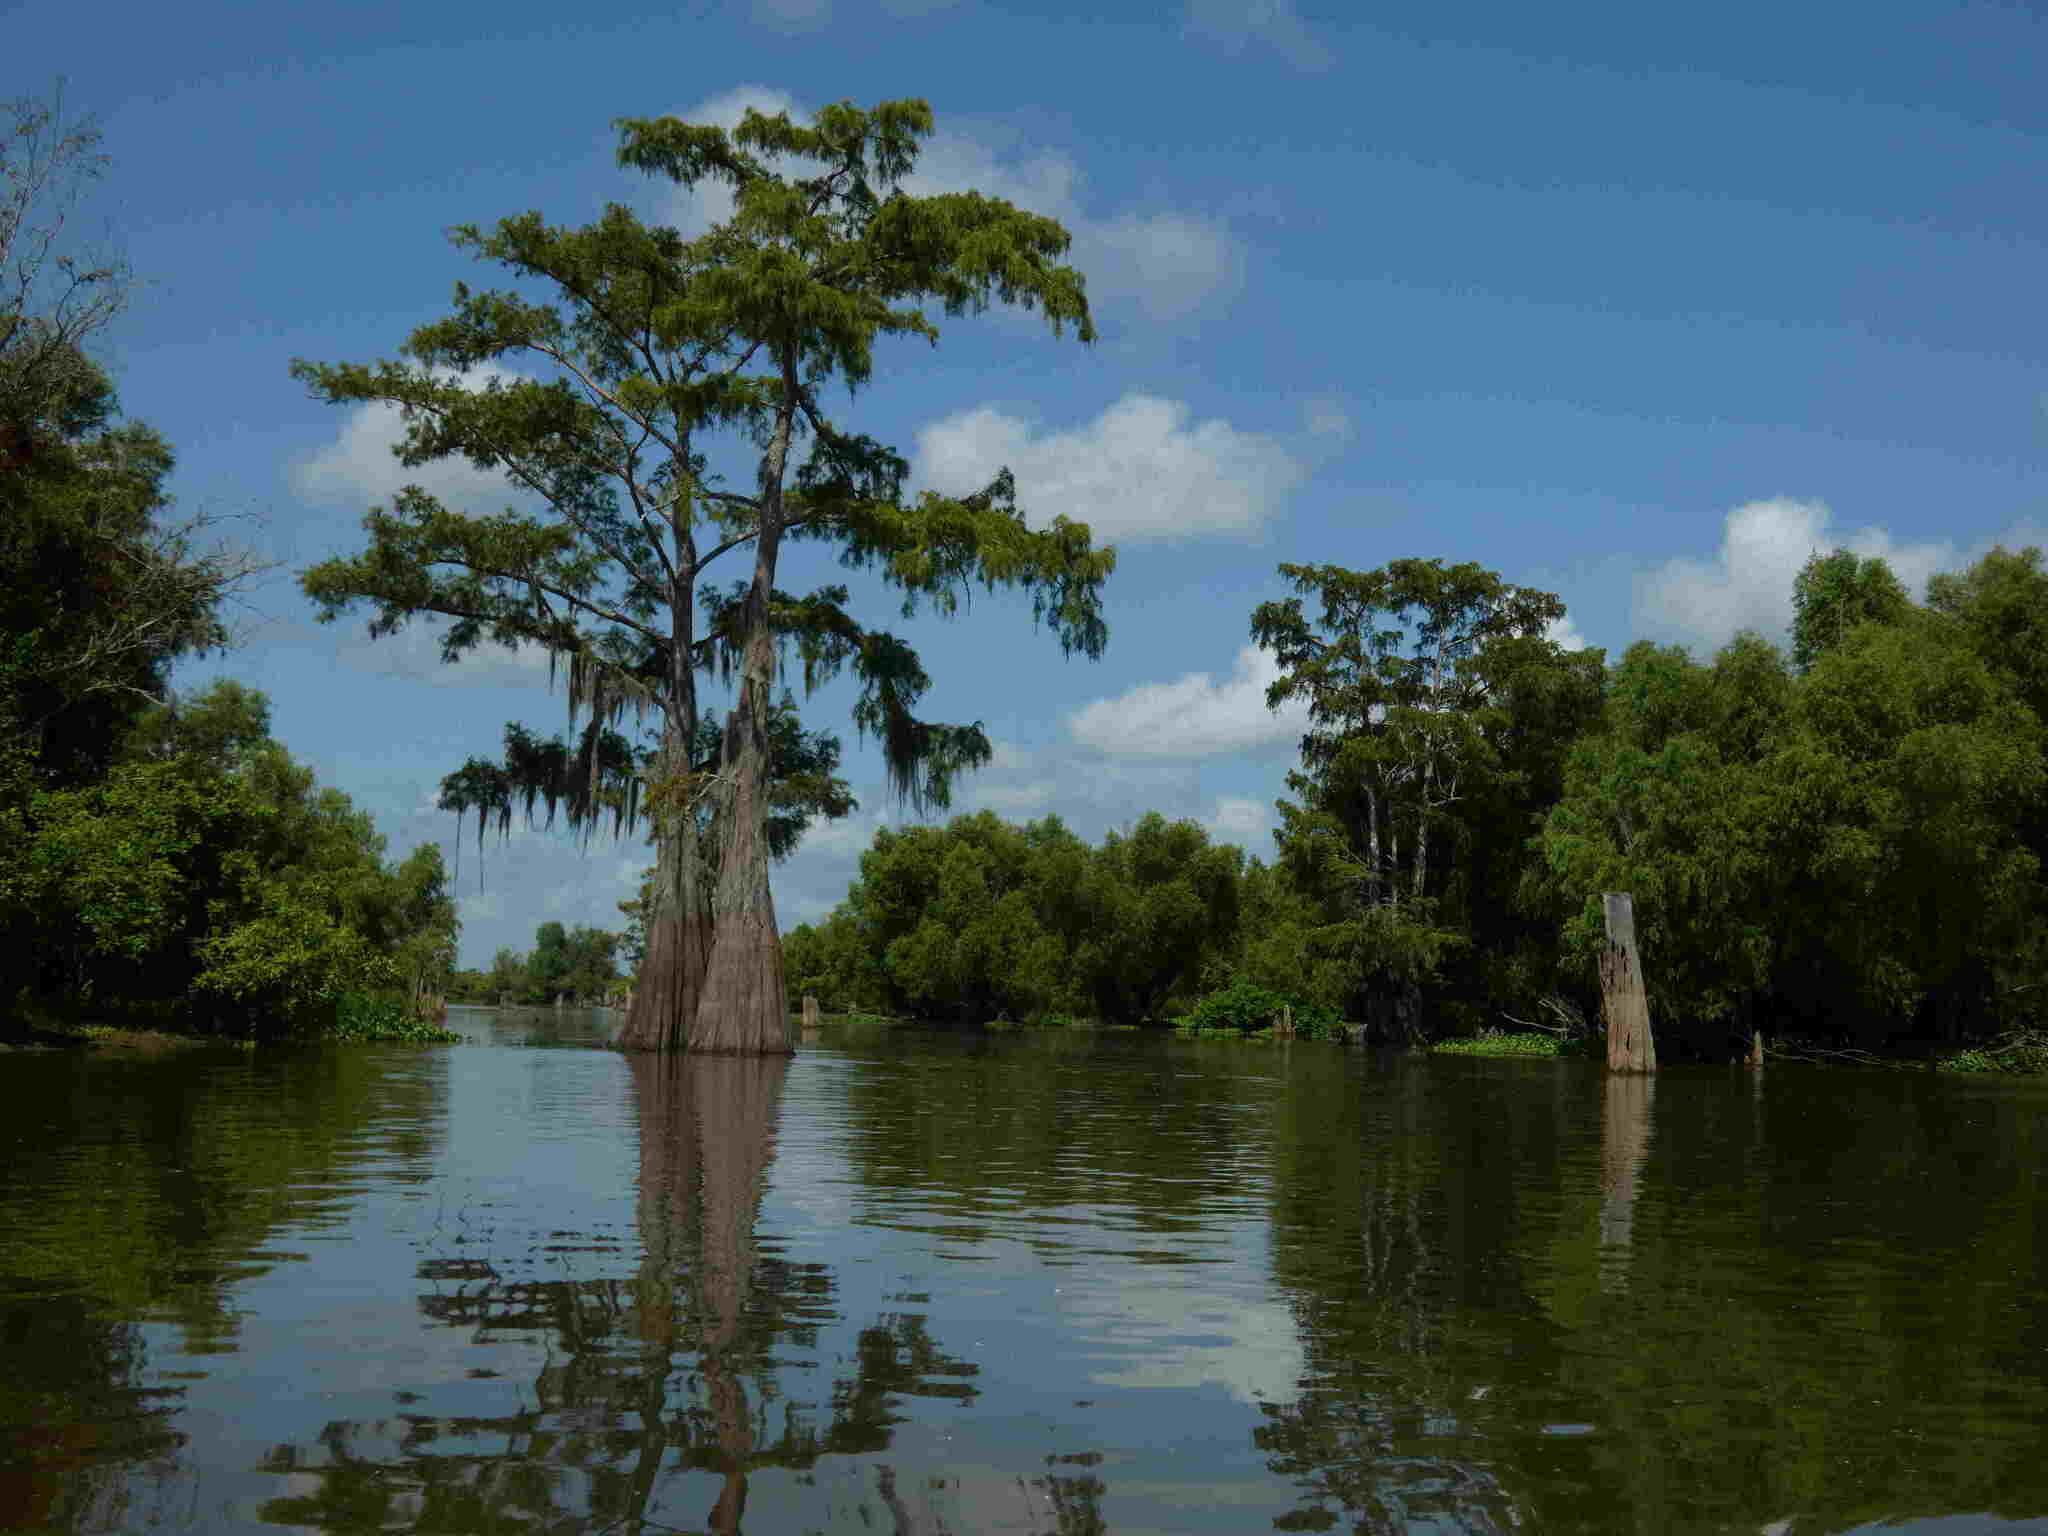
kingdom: Plantae
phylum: Tracheophyta
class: Pinopsida
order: Pinales
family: Cupressaceae
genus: Taxodium
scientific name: Taxodium distichum
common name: Bald cypress
